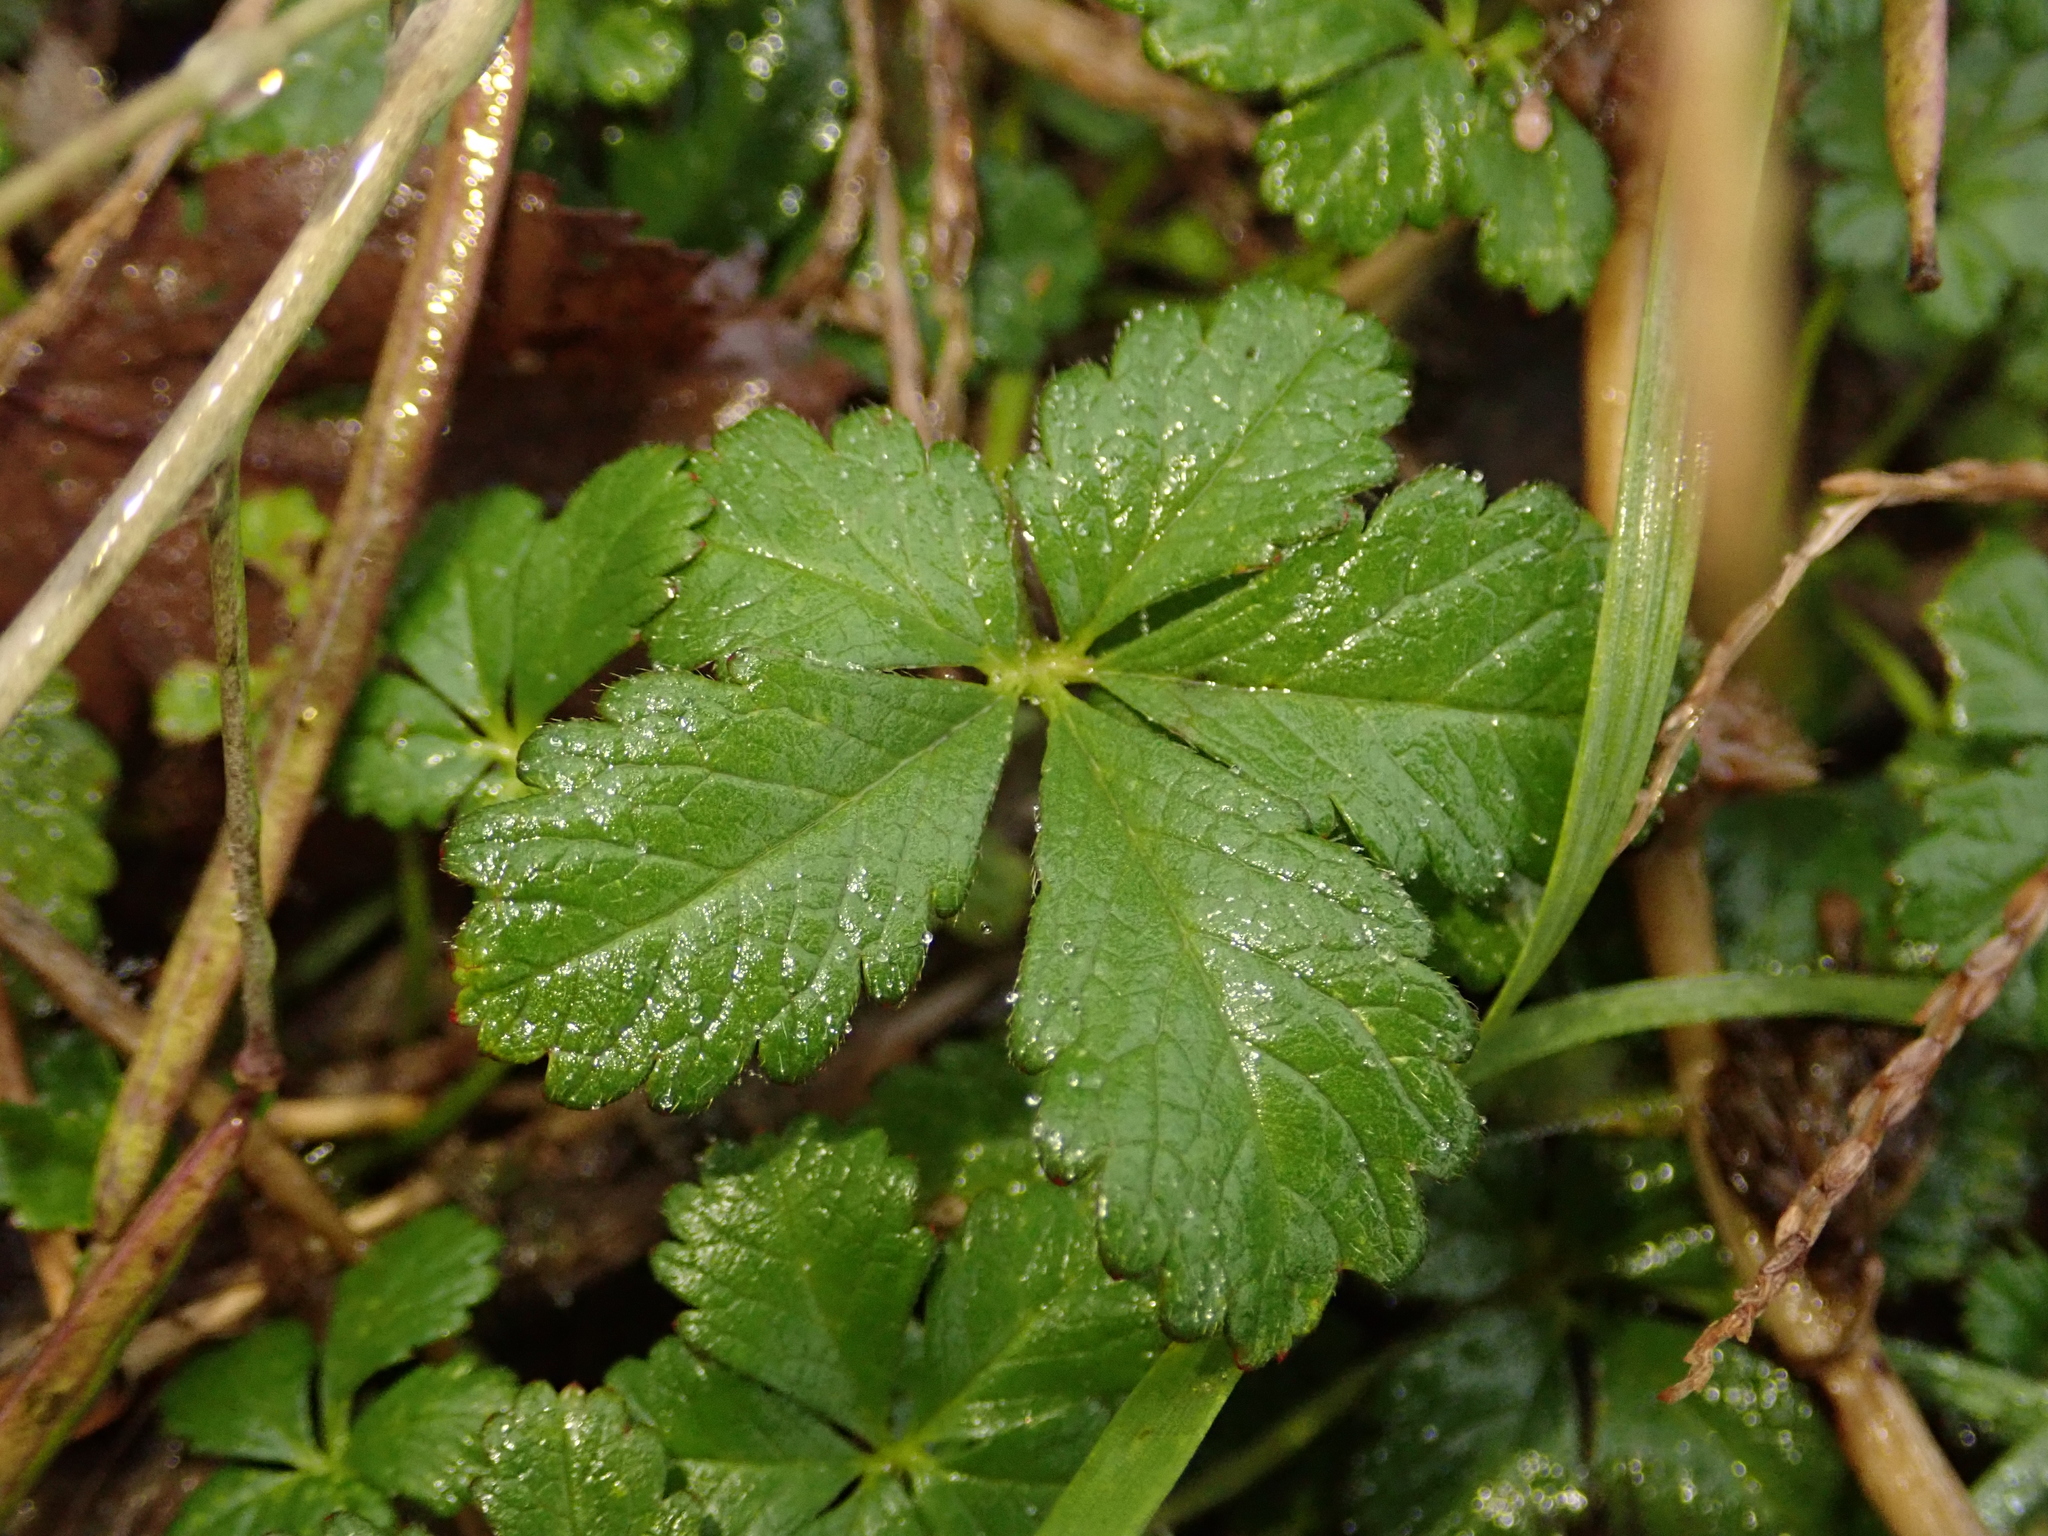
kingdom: Plantae
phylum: Tracheophyta
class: Magnoliopsida
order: Rosales
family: Rosaceae
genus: Potentilla
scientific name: Potentilla reptans
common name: Creeping cinquefoil
